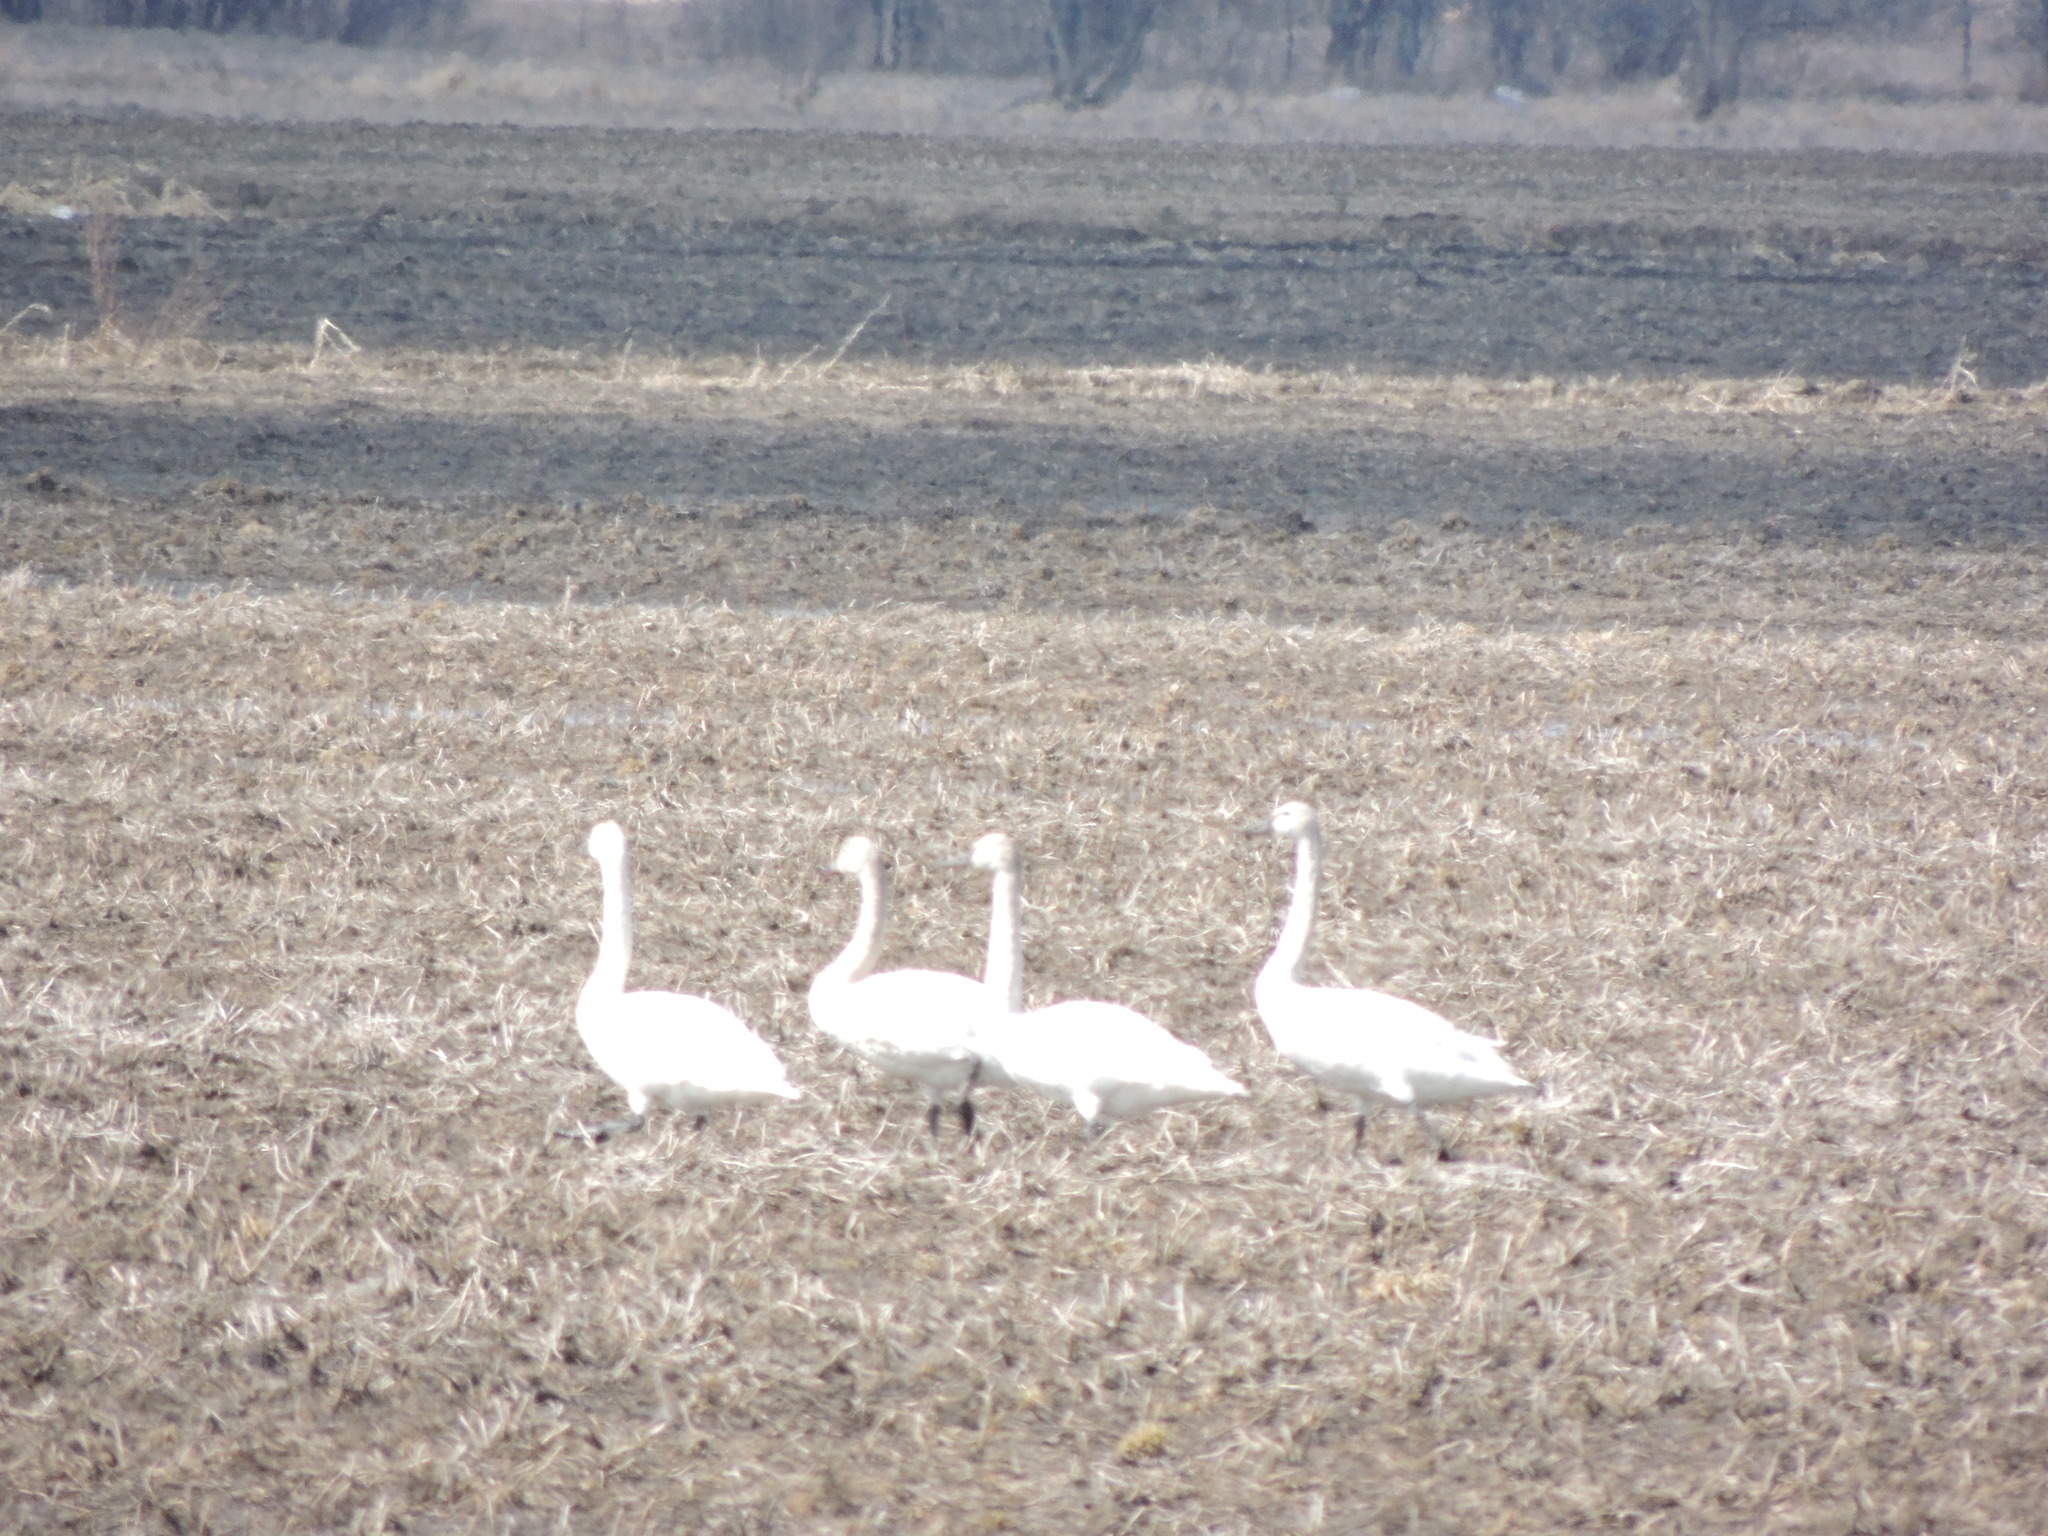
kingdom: Animalia
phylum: Chordata
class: Aves
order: Anseriformes
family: Anatidae
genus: Cygnus
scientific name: Cygnus columbianus
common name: Tundra swan
